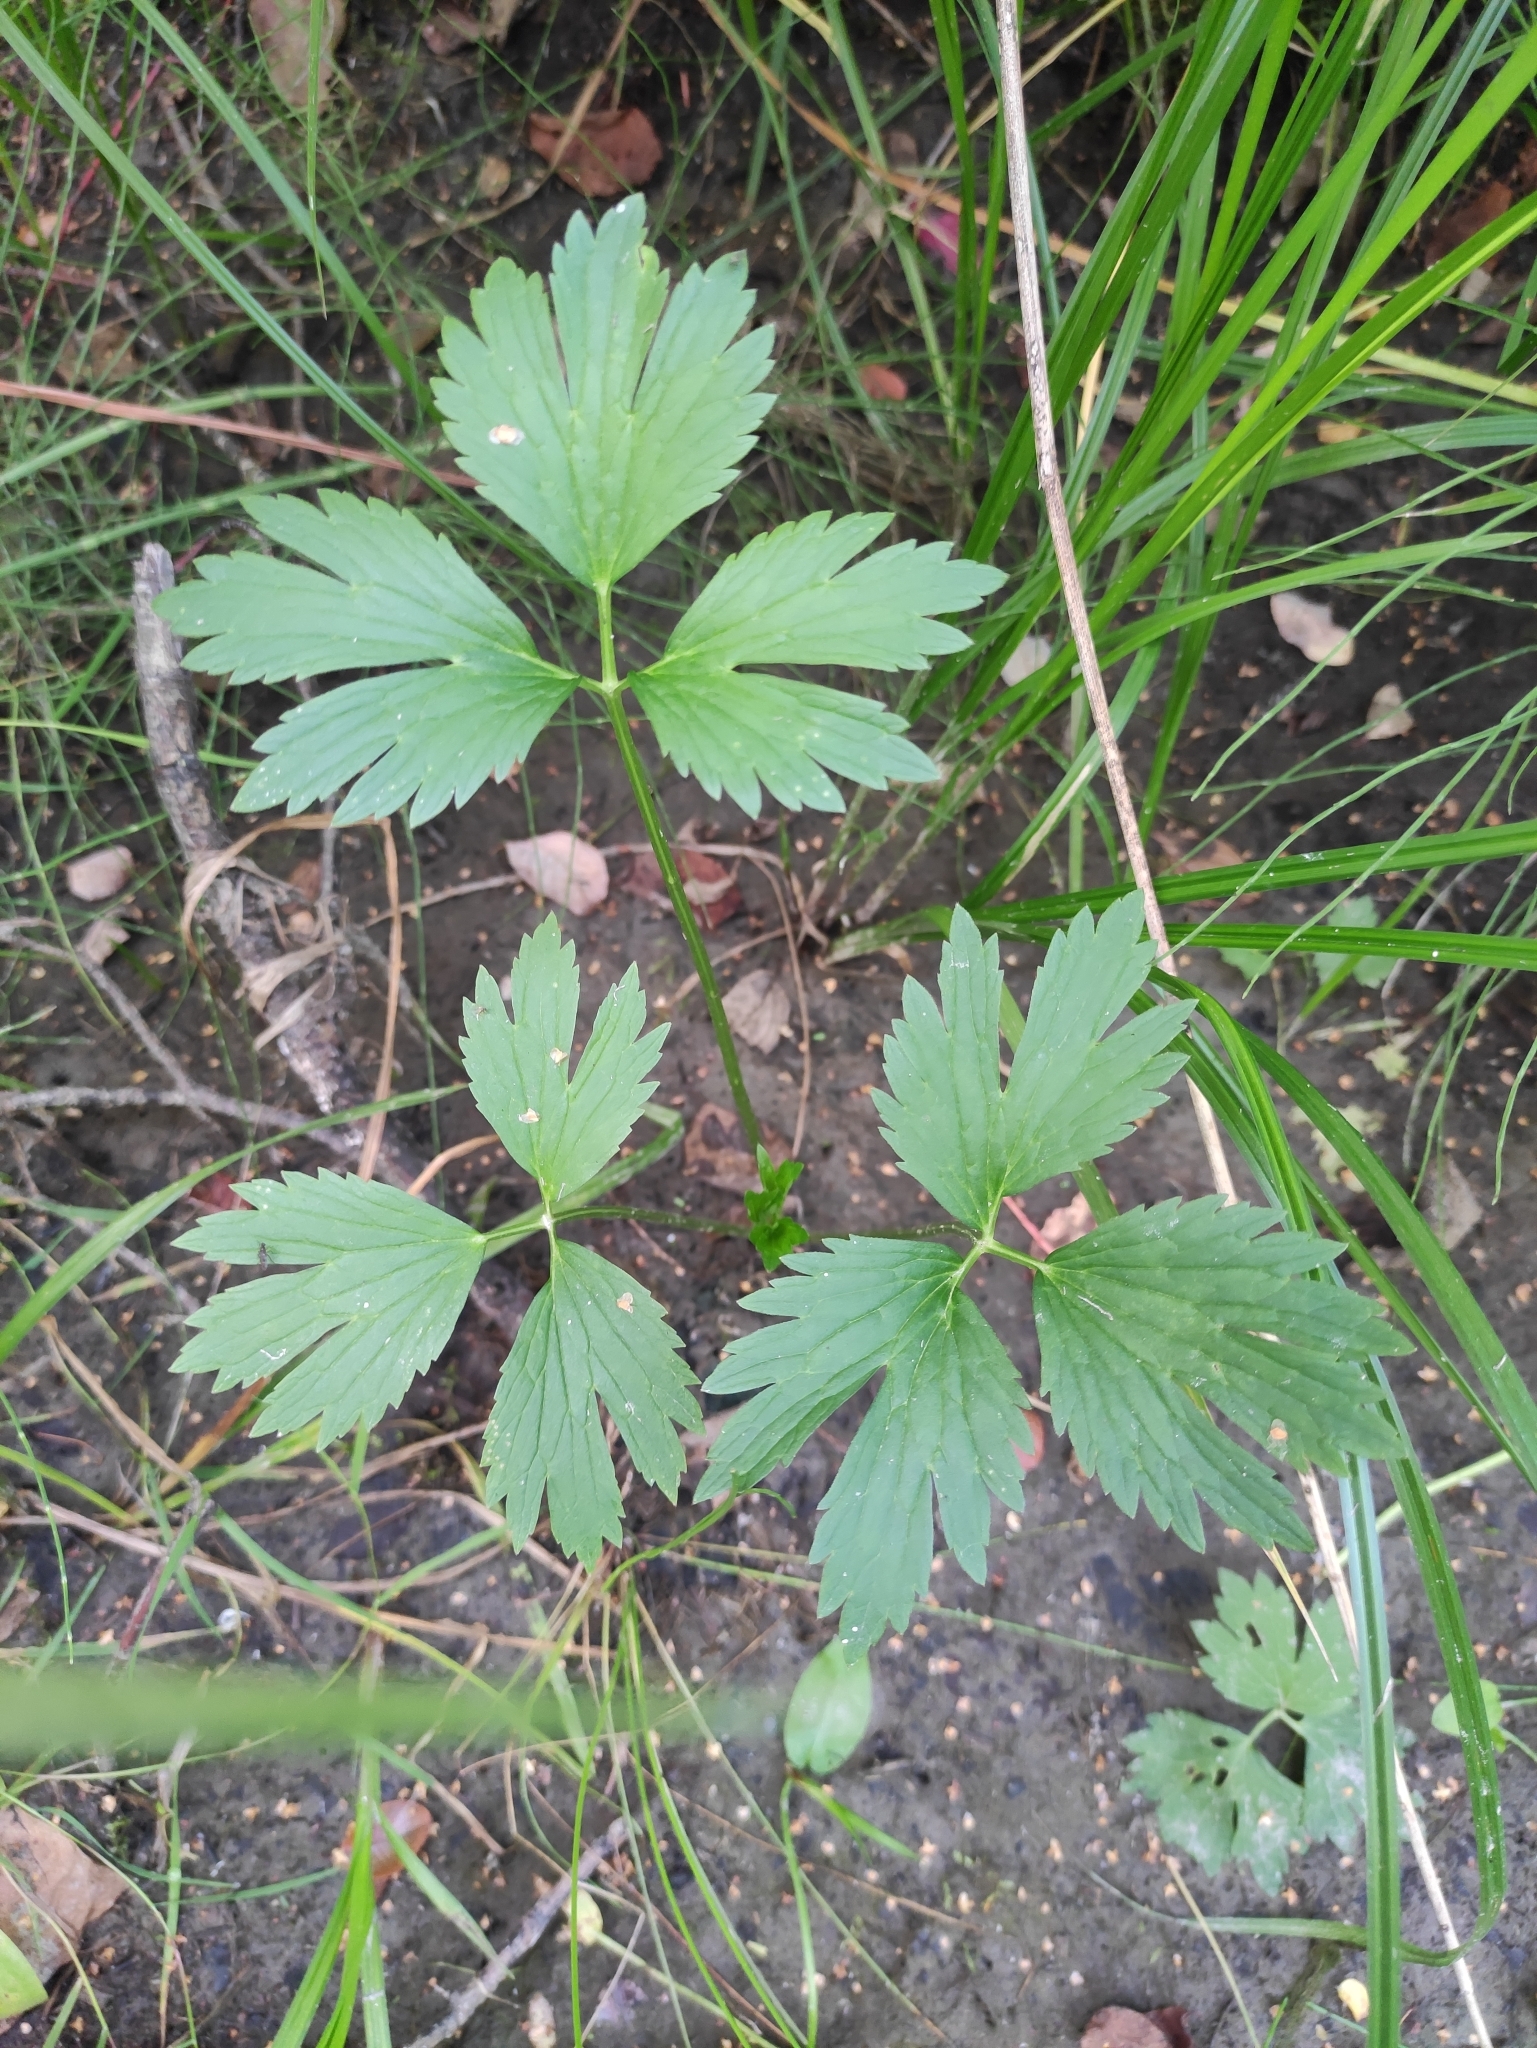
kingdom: Plantae
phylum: Tracheophyta
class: Magnoliopsida
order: Ranunculales
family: Ranunculaceae
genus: Ranunculus
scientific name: Ranunculus repens
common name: Creeping buttercup
